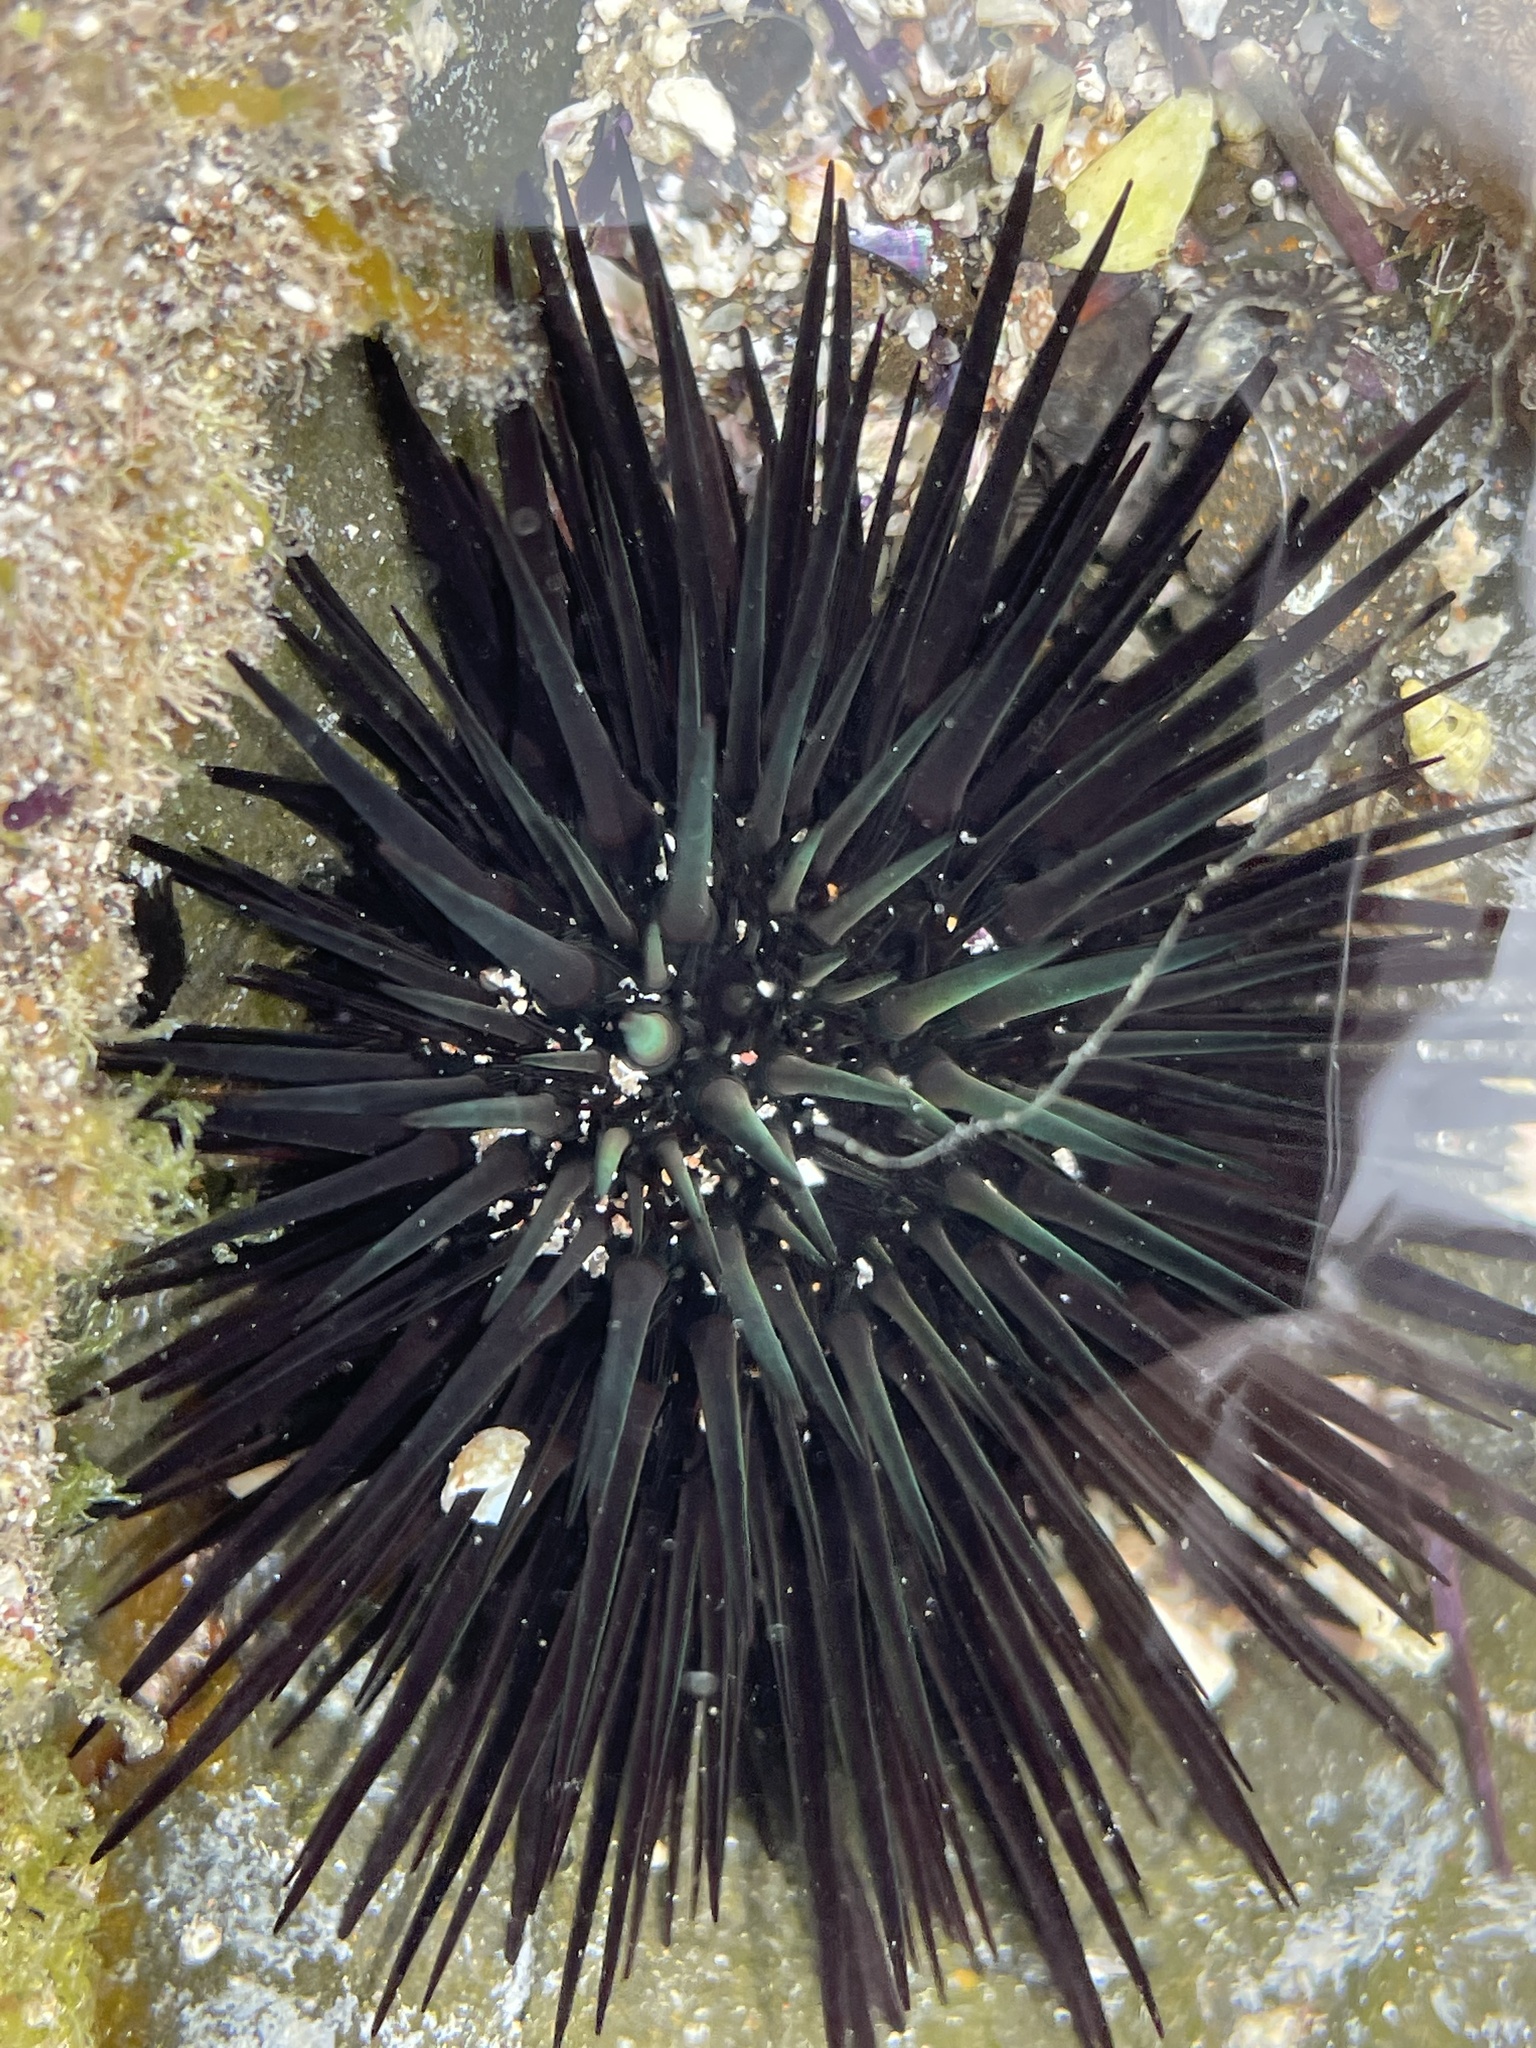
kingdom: Animalia
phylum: Echinodermata
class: Echinoidea
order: Arbacioida
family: Arbaciidae
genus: Arbacia
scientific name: Arbacia lixula
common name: Black sea urchin
